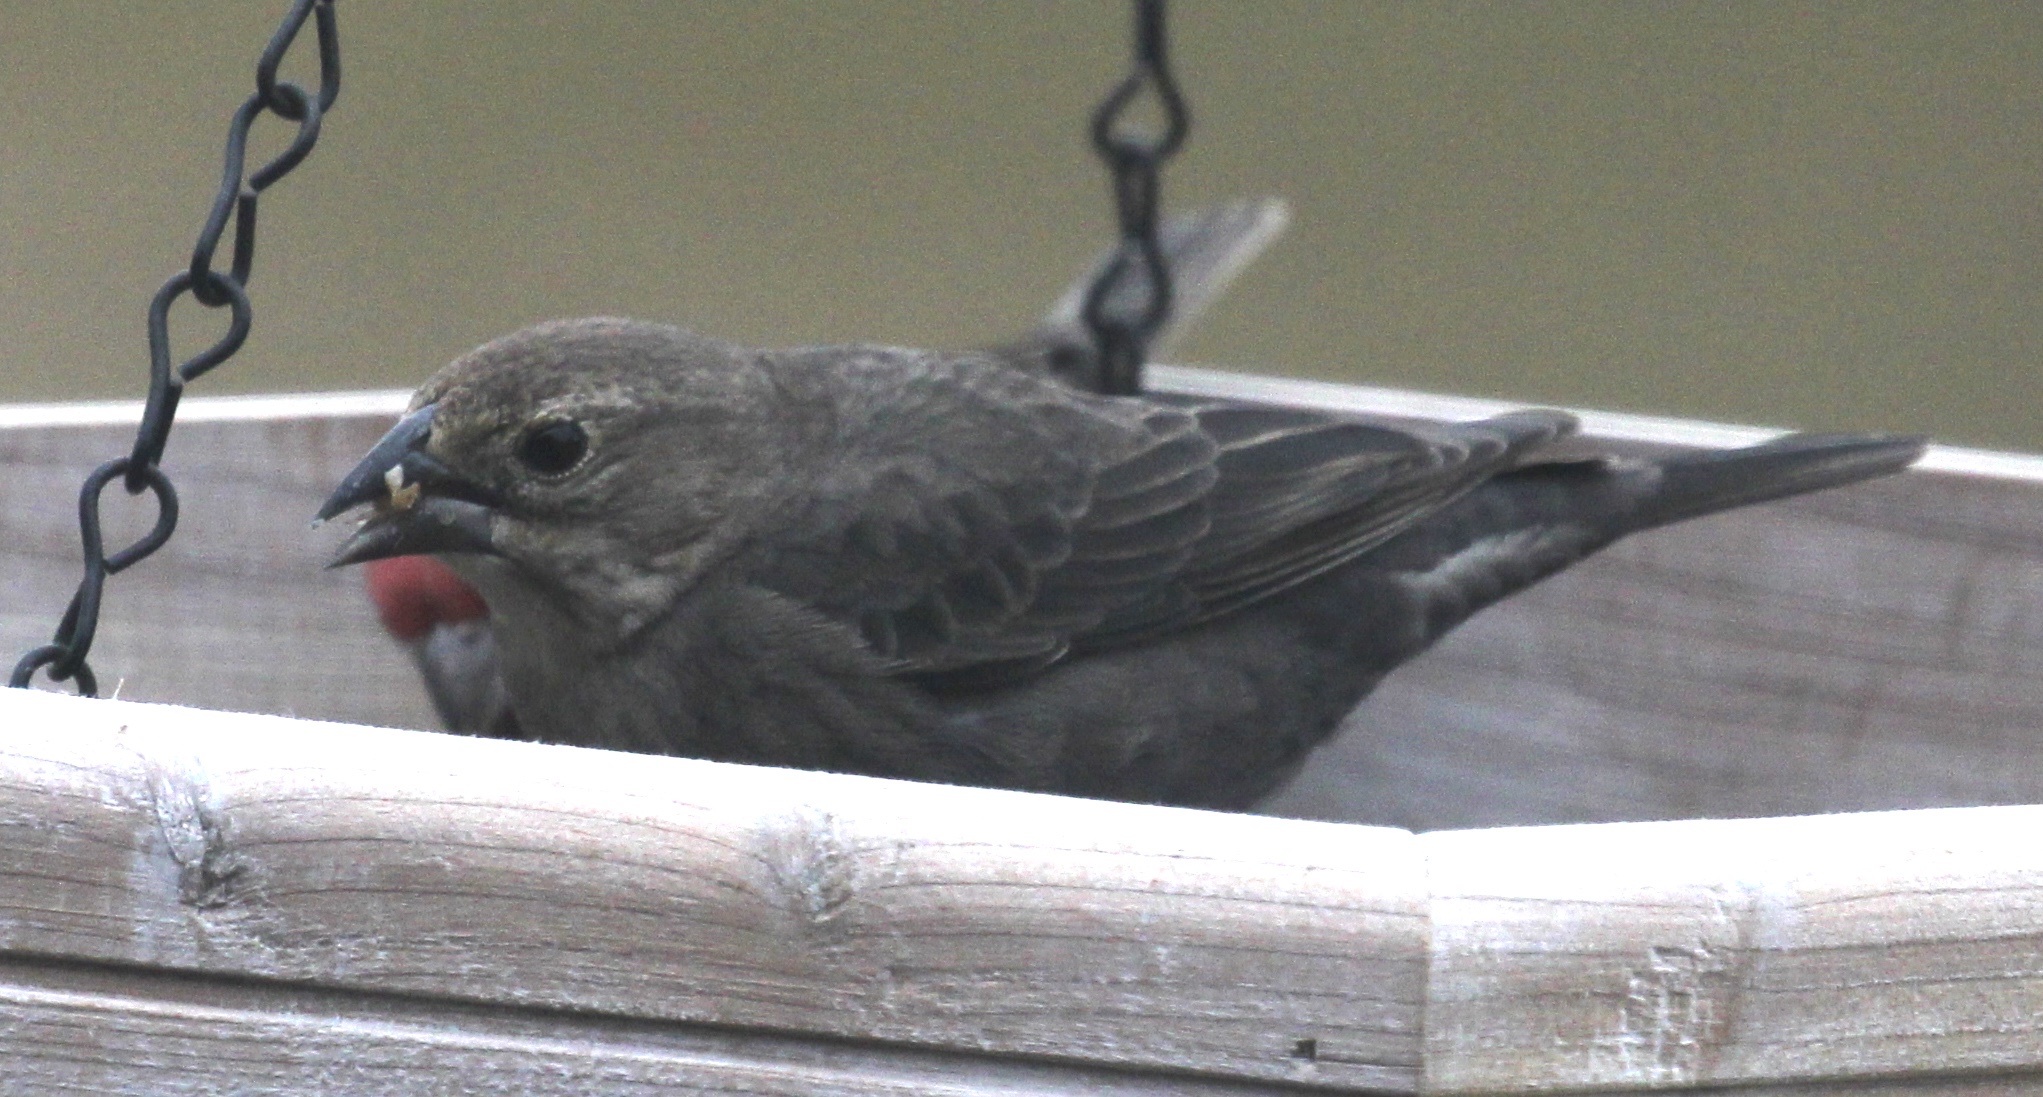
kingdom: Animalia
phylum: Chordata
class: Aves
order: Passeriformes
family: Icteridae
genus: Molothrus
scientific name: Molothrus ater
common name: Brown-headed cowbird
